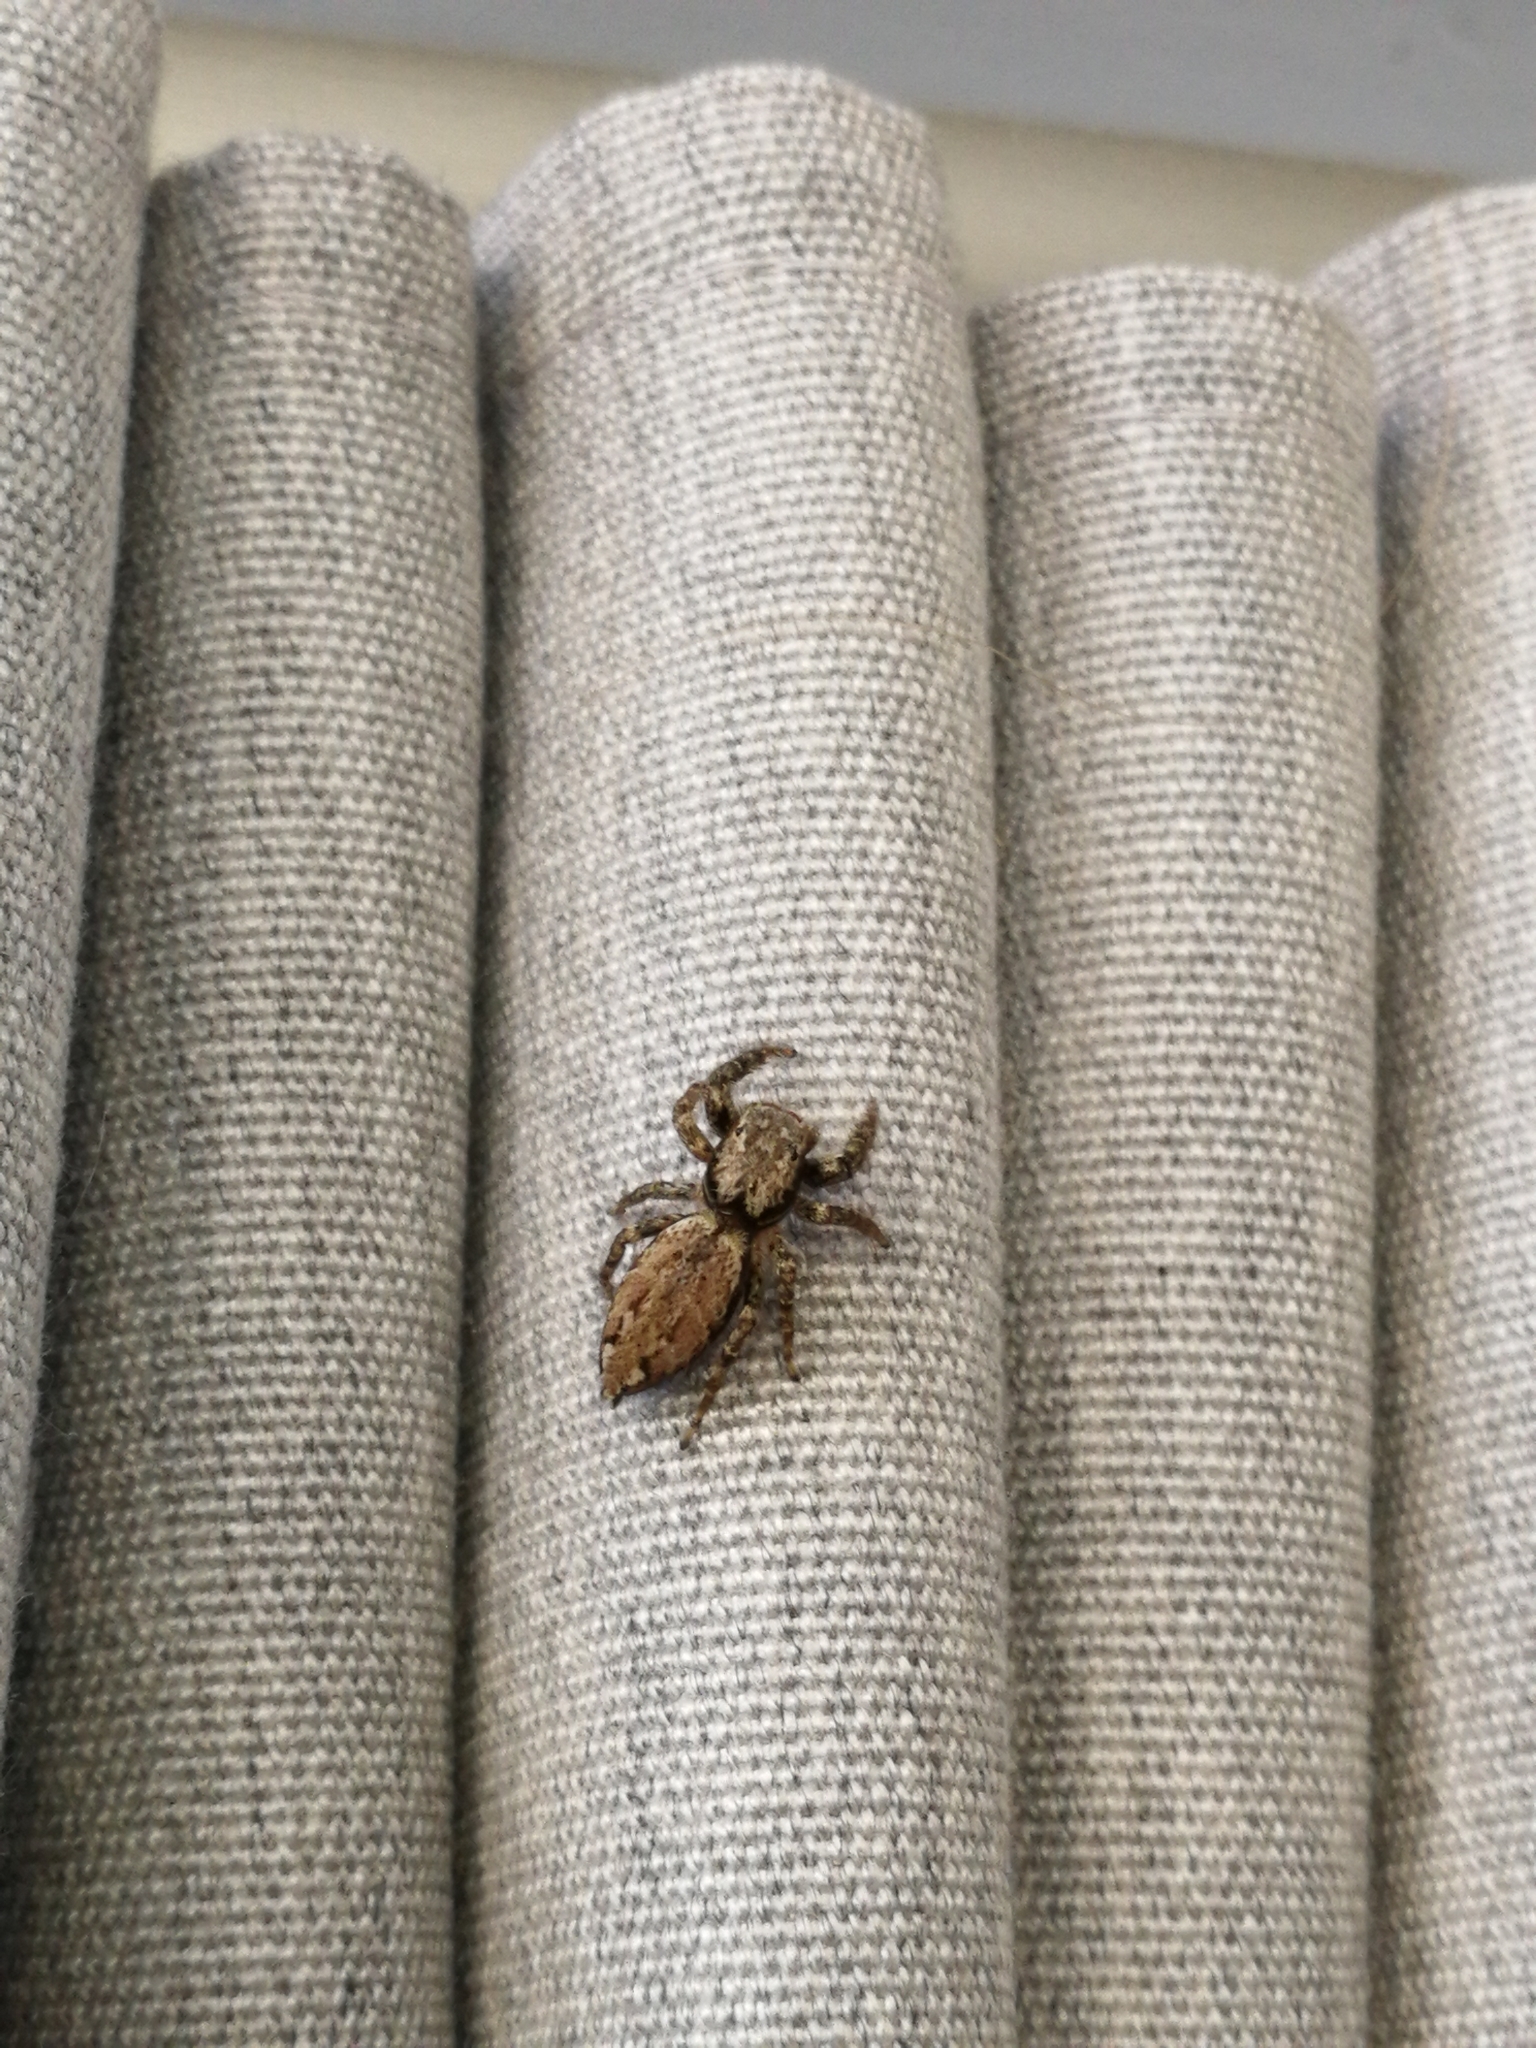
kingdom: Animalia
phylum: Arthropoda
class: Arachnida
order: Araneae
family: Salticidae
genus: Marpissa
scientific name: Marpissa muscosa
